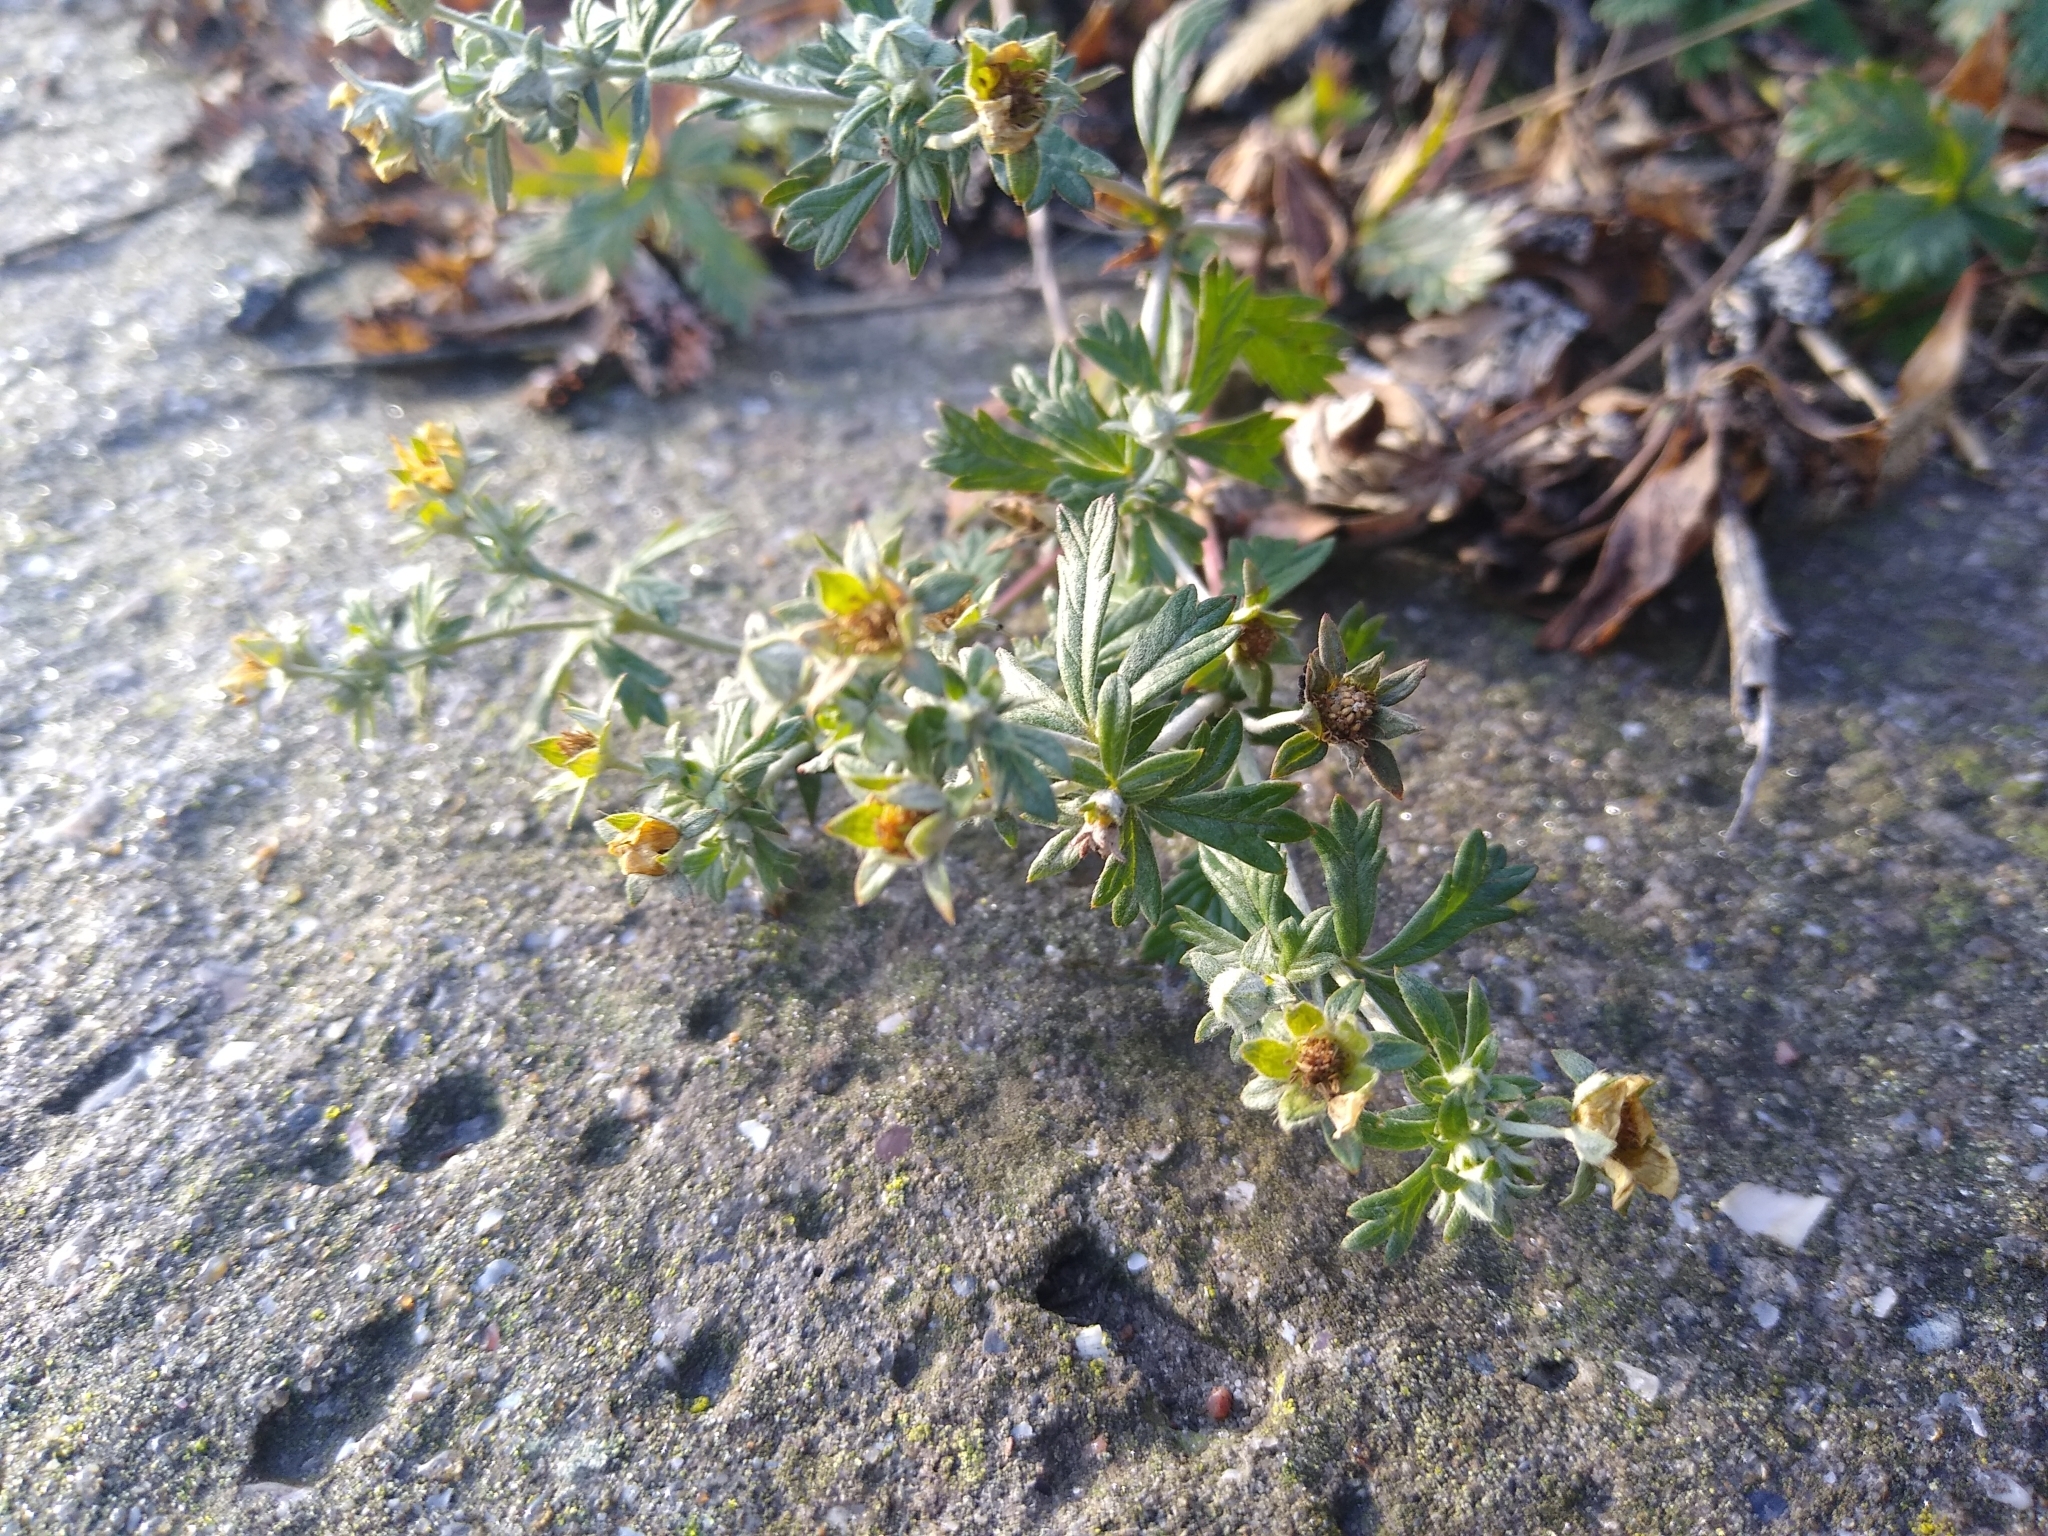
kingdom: Plantae
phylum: Tracheophyta
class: Magnoliopsida
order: Rosales
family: Rosaceae
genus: Potentilla
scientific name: Potentilla argentea
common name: Hoary cinquefoil
